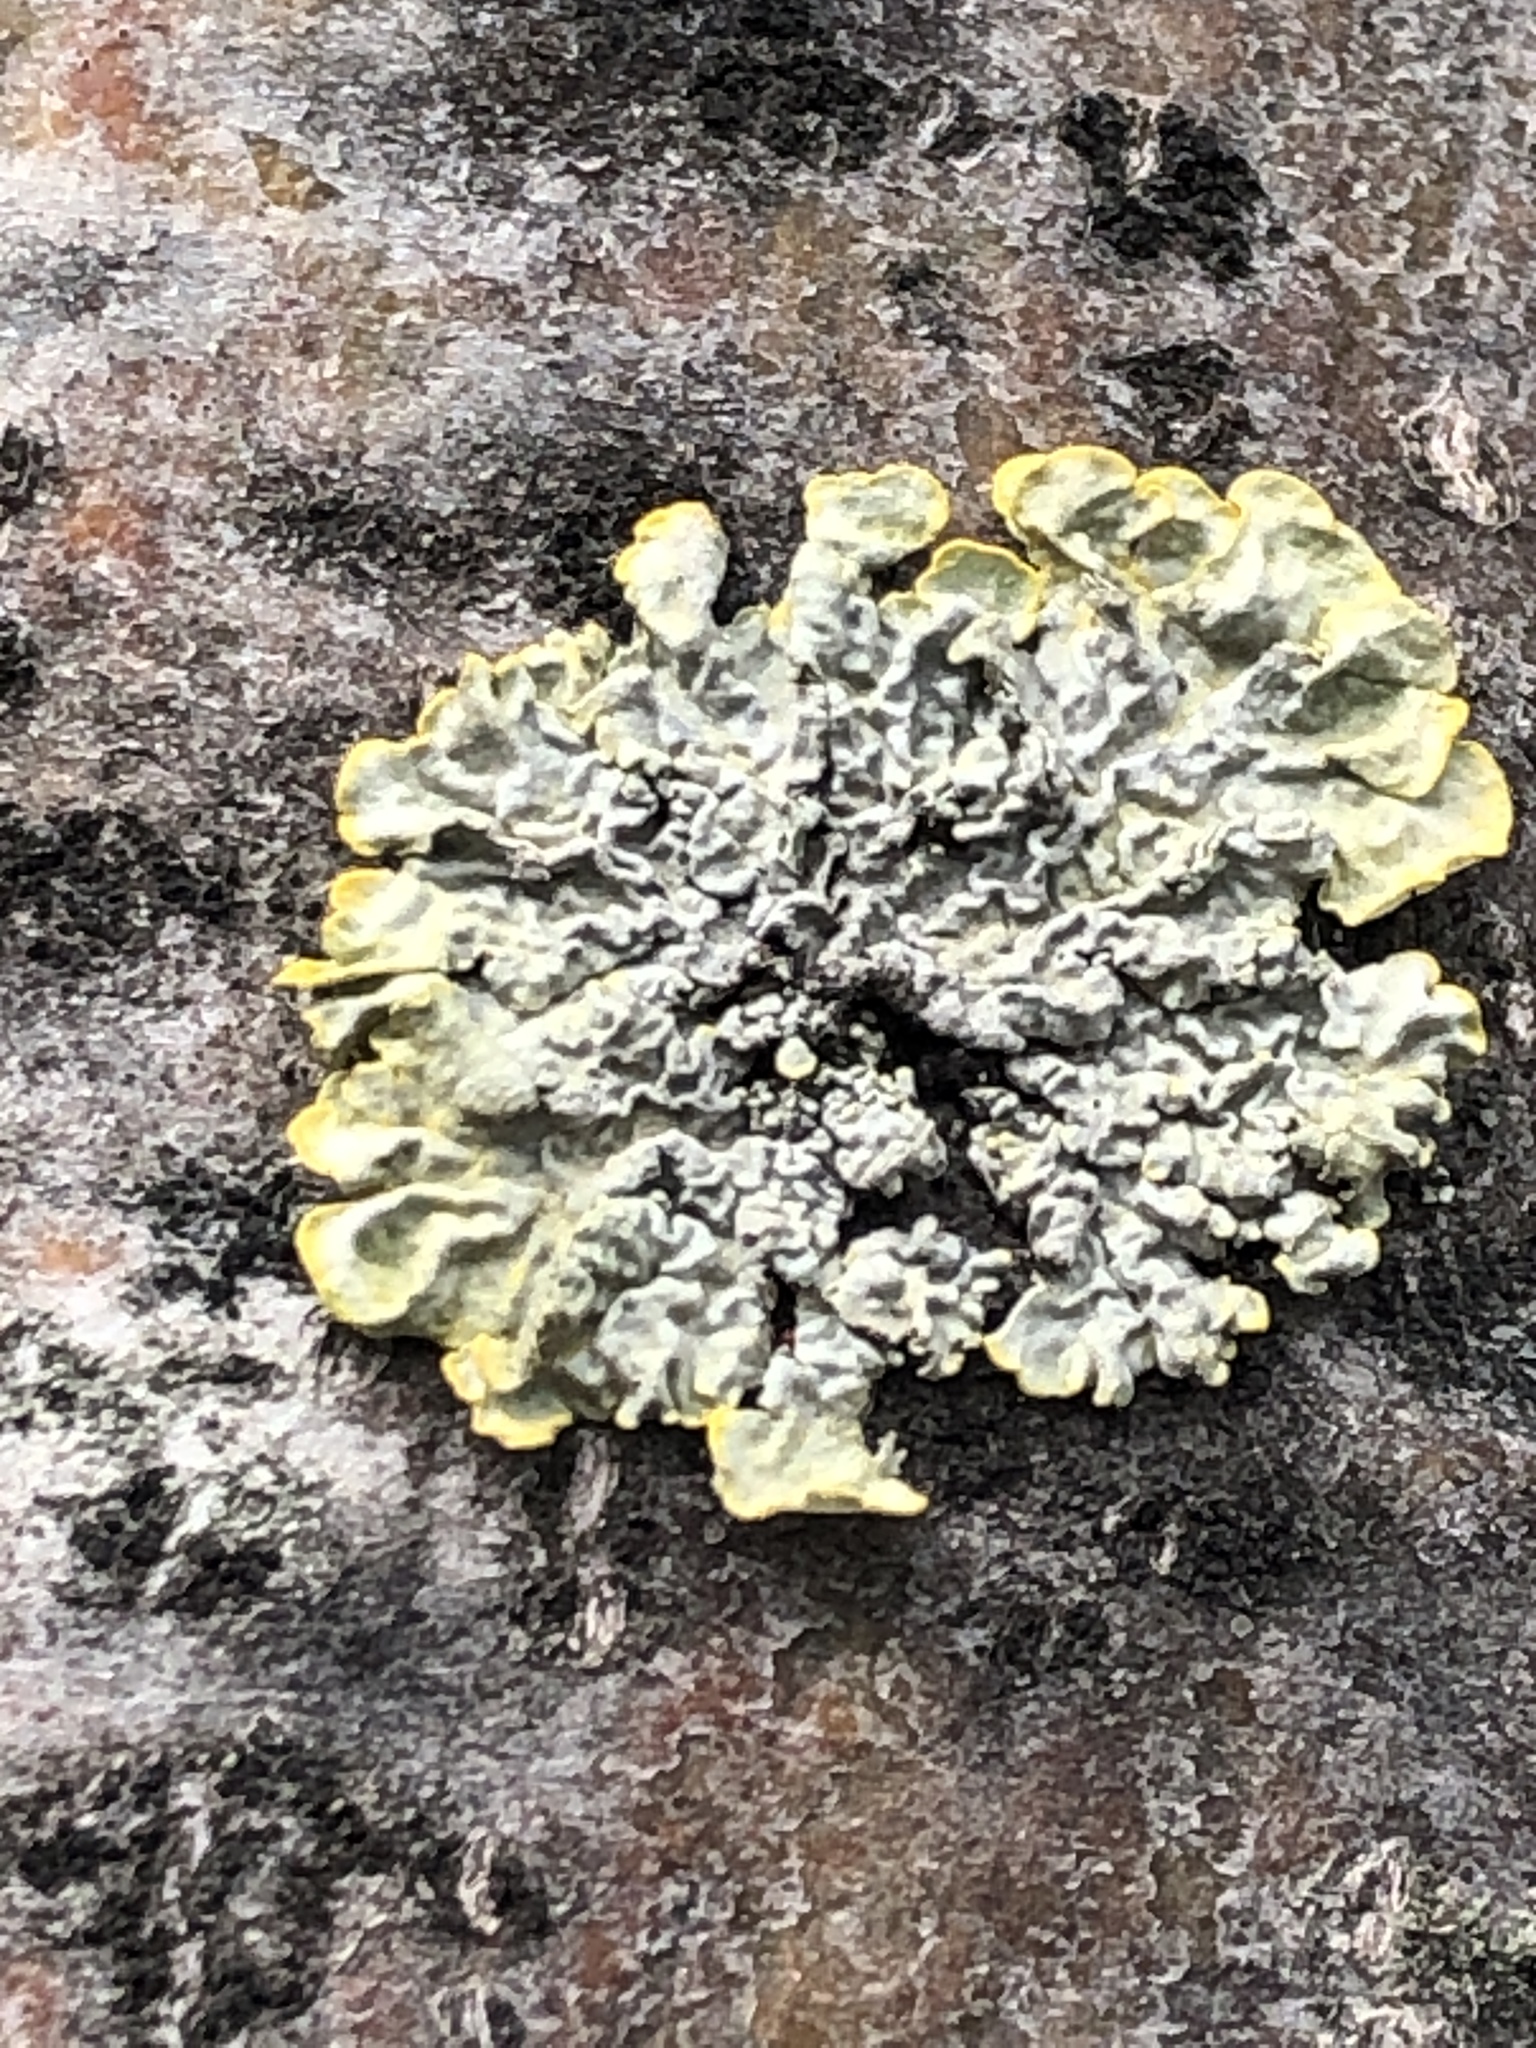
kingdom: Fungi
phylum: Ascomycota
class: Lecanoromycetes
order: Teloschistales
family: Teloschistaceae
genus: Xanthoria
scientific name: Xanthoria parietina
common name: Common orange lichen
